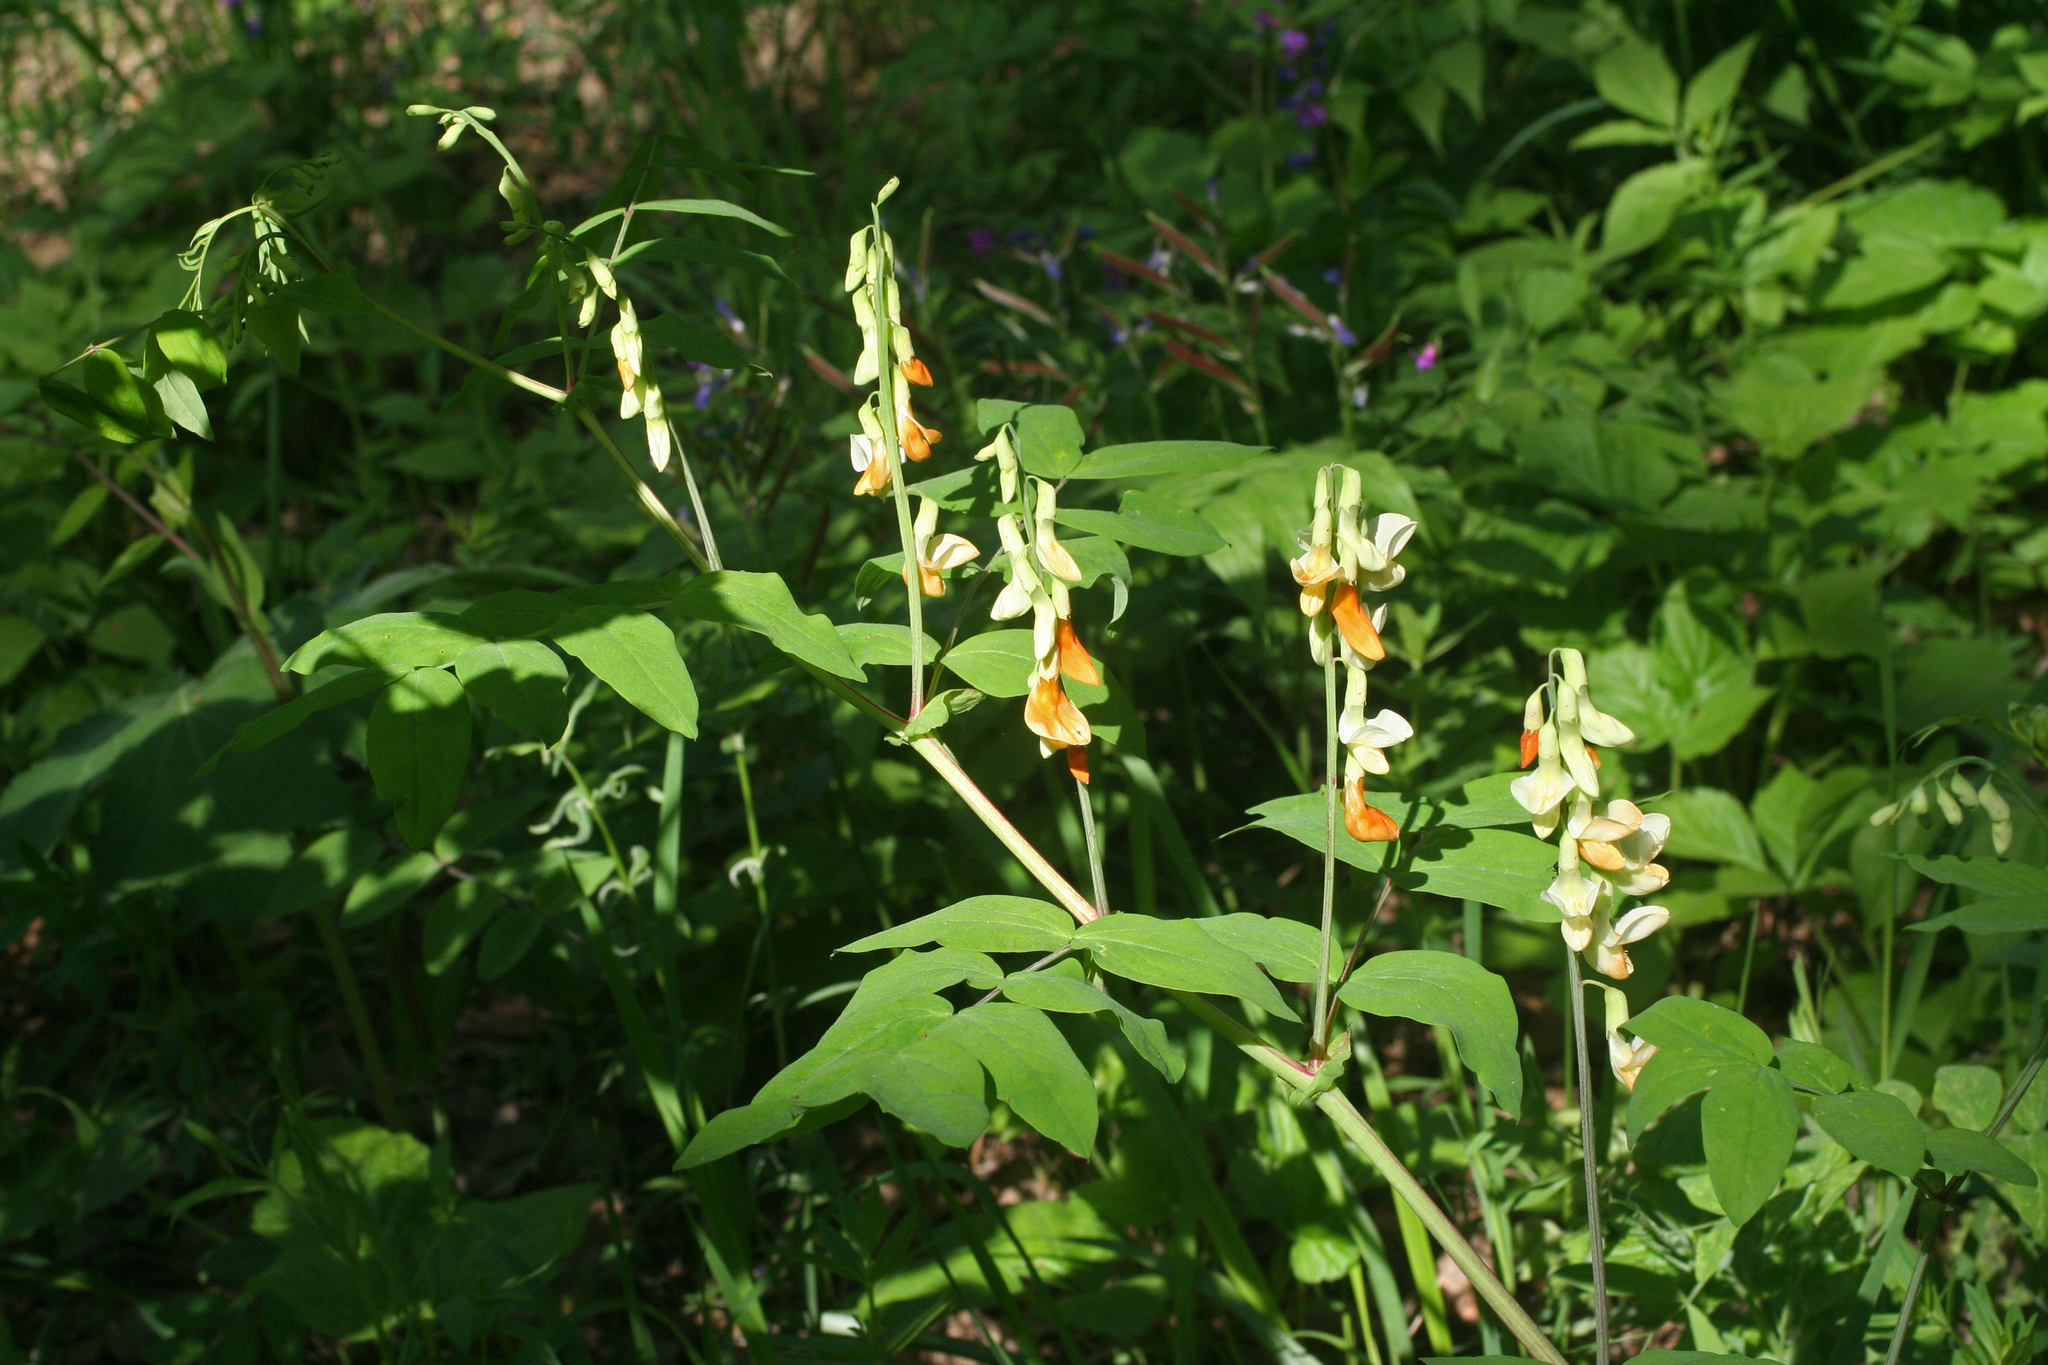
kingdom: Plantae
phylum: Tracheophyta
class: Magnoliopsida
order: Fabales
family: Fabaceae
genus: Lathyrus
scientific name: Lathyrus gmelinii
